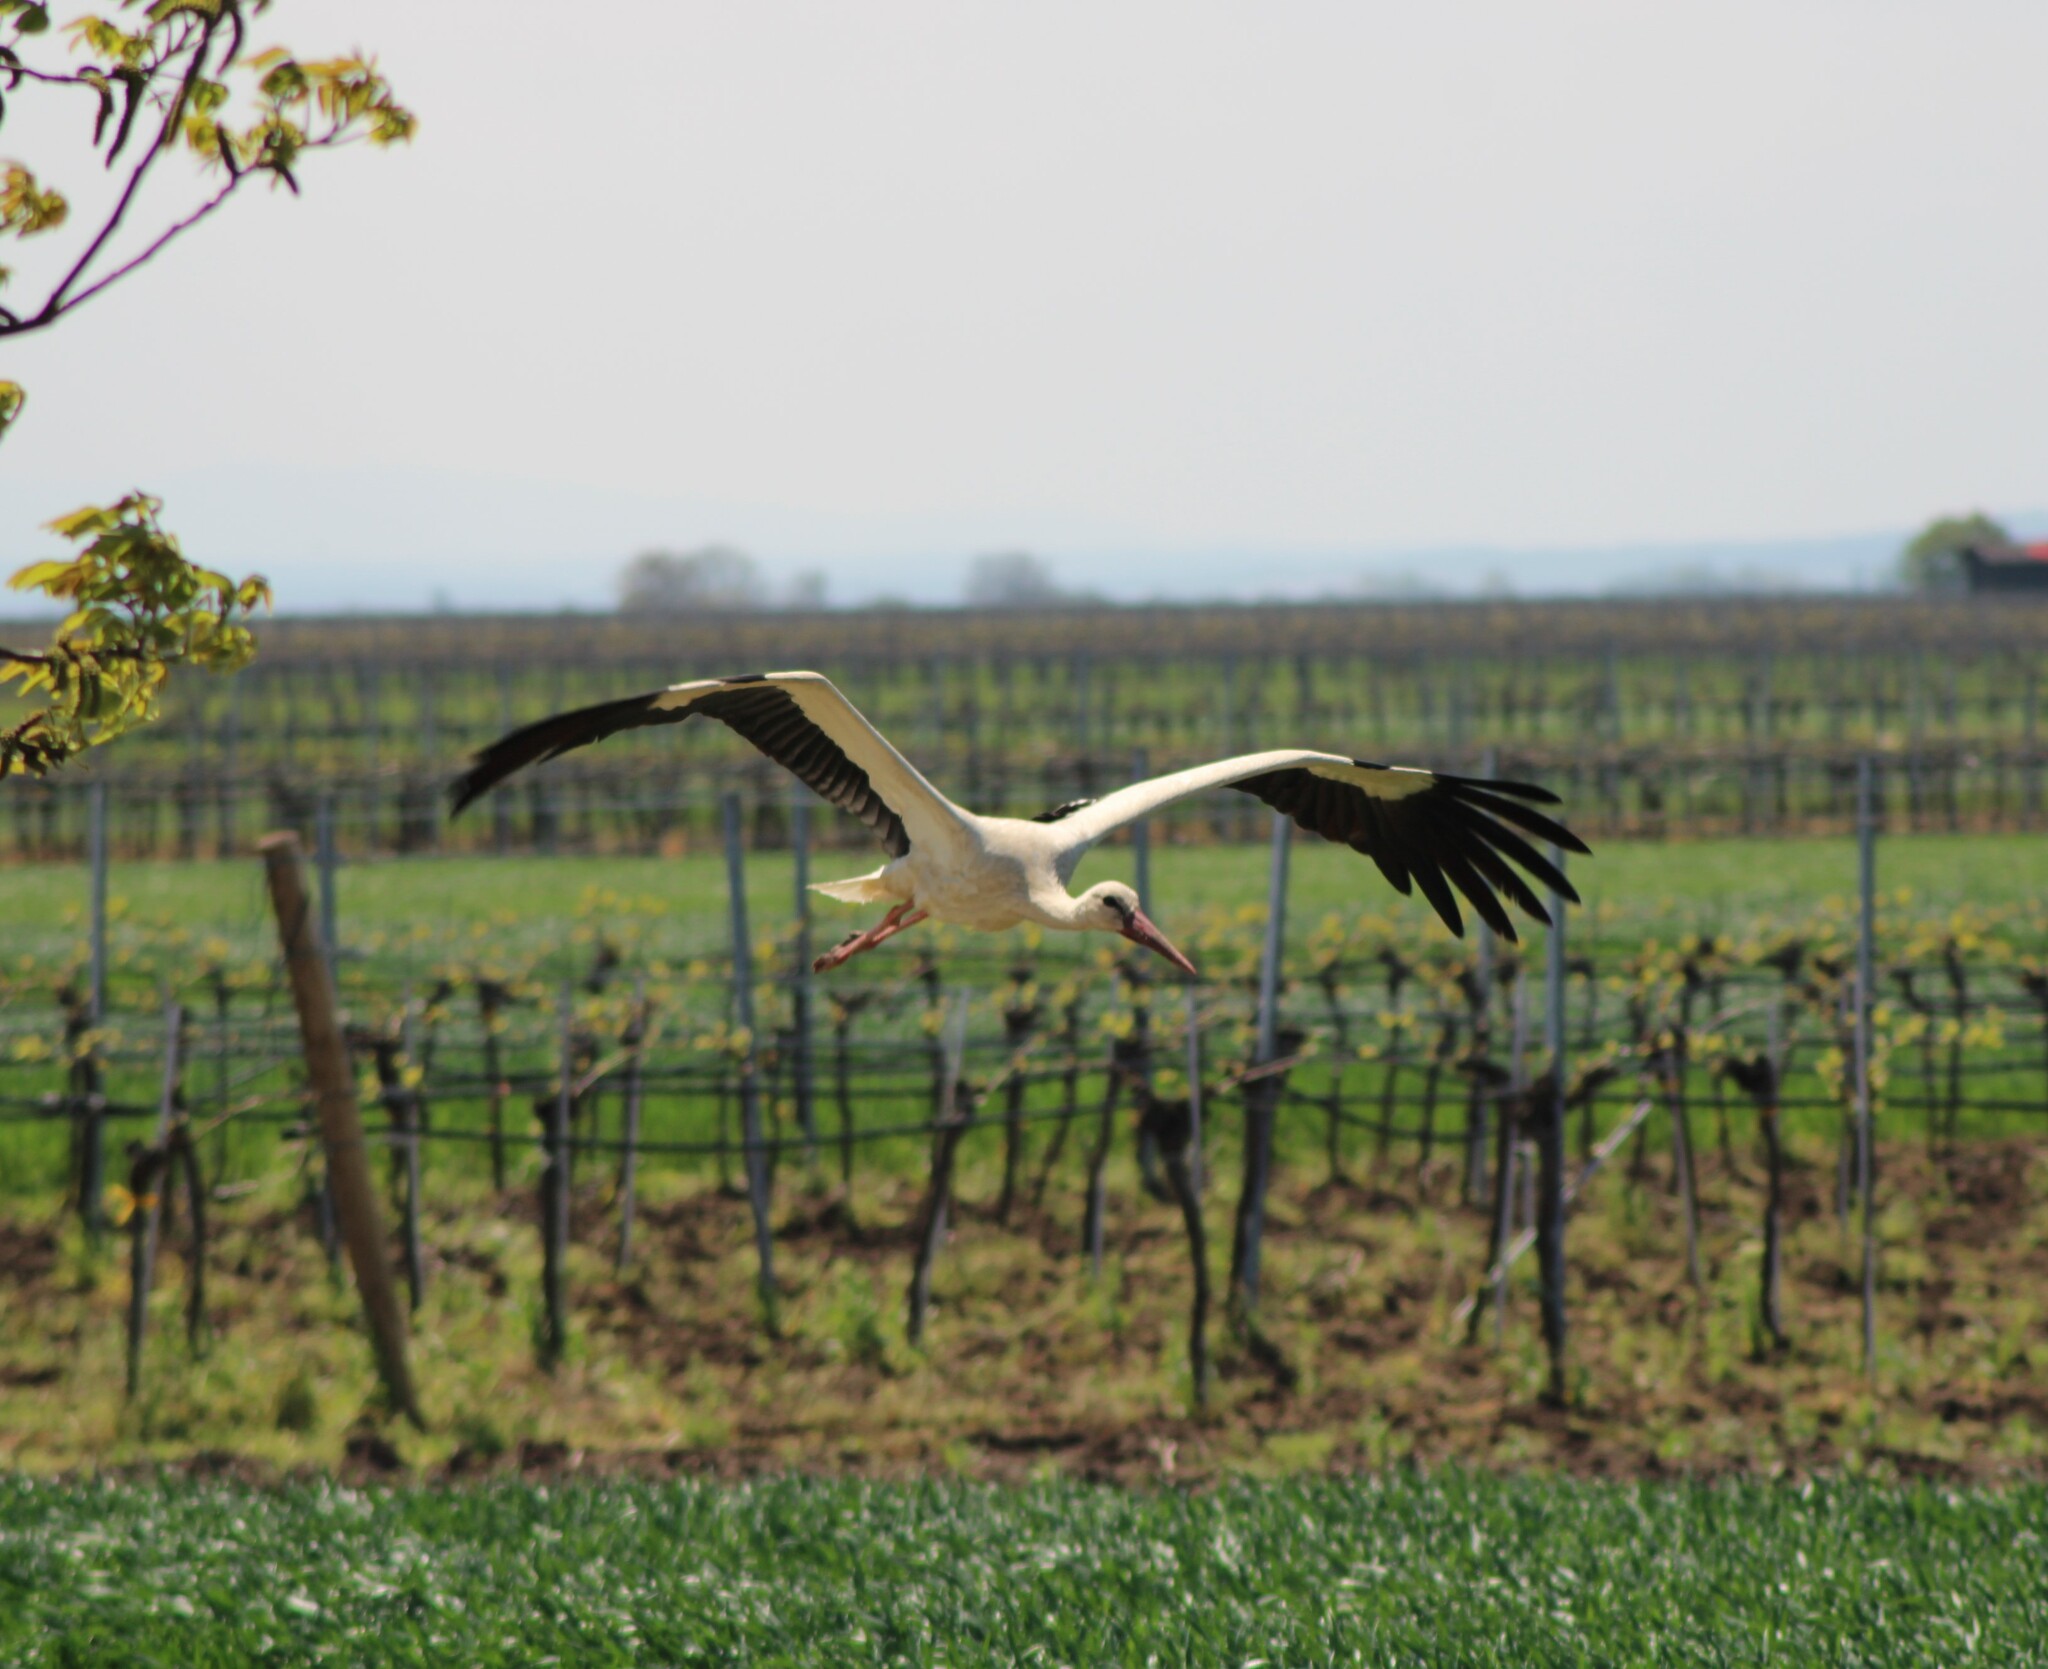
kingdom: Animalia
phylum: Chordata
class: Aves
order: Ciconiiformes
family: Ciconiidae
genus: Ciconia
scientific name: Ciconia ciconia
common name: White stork
